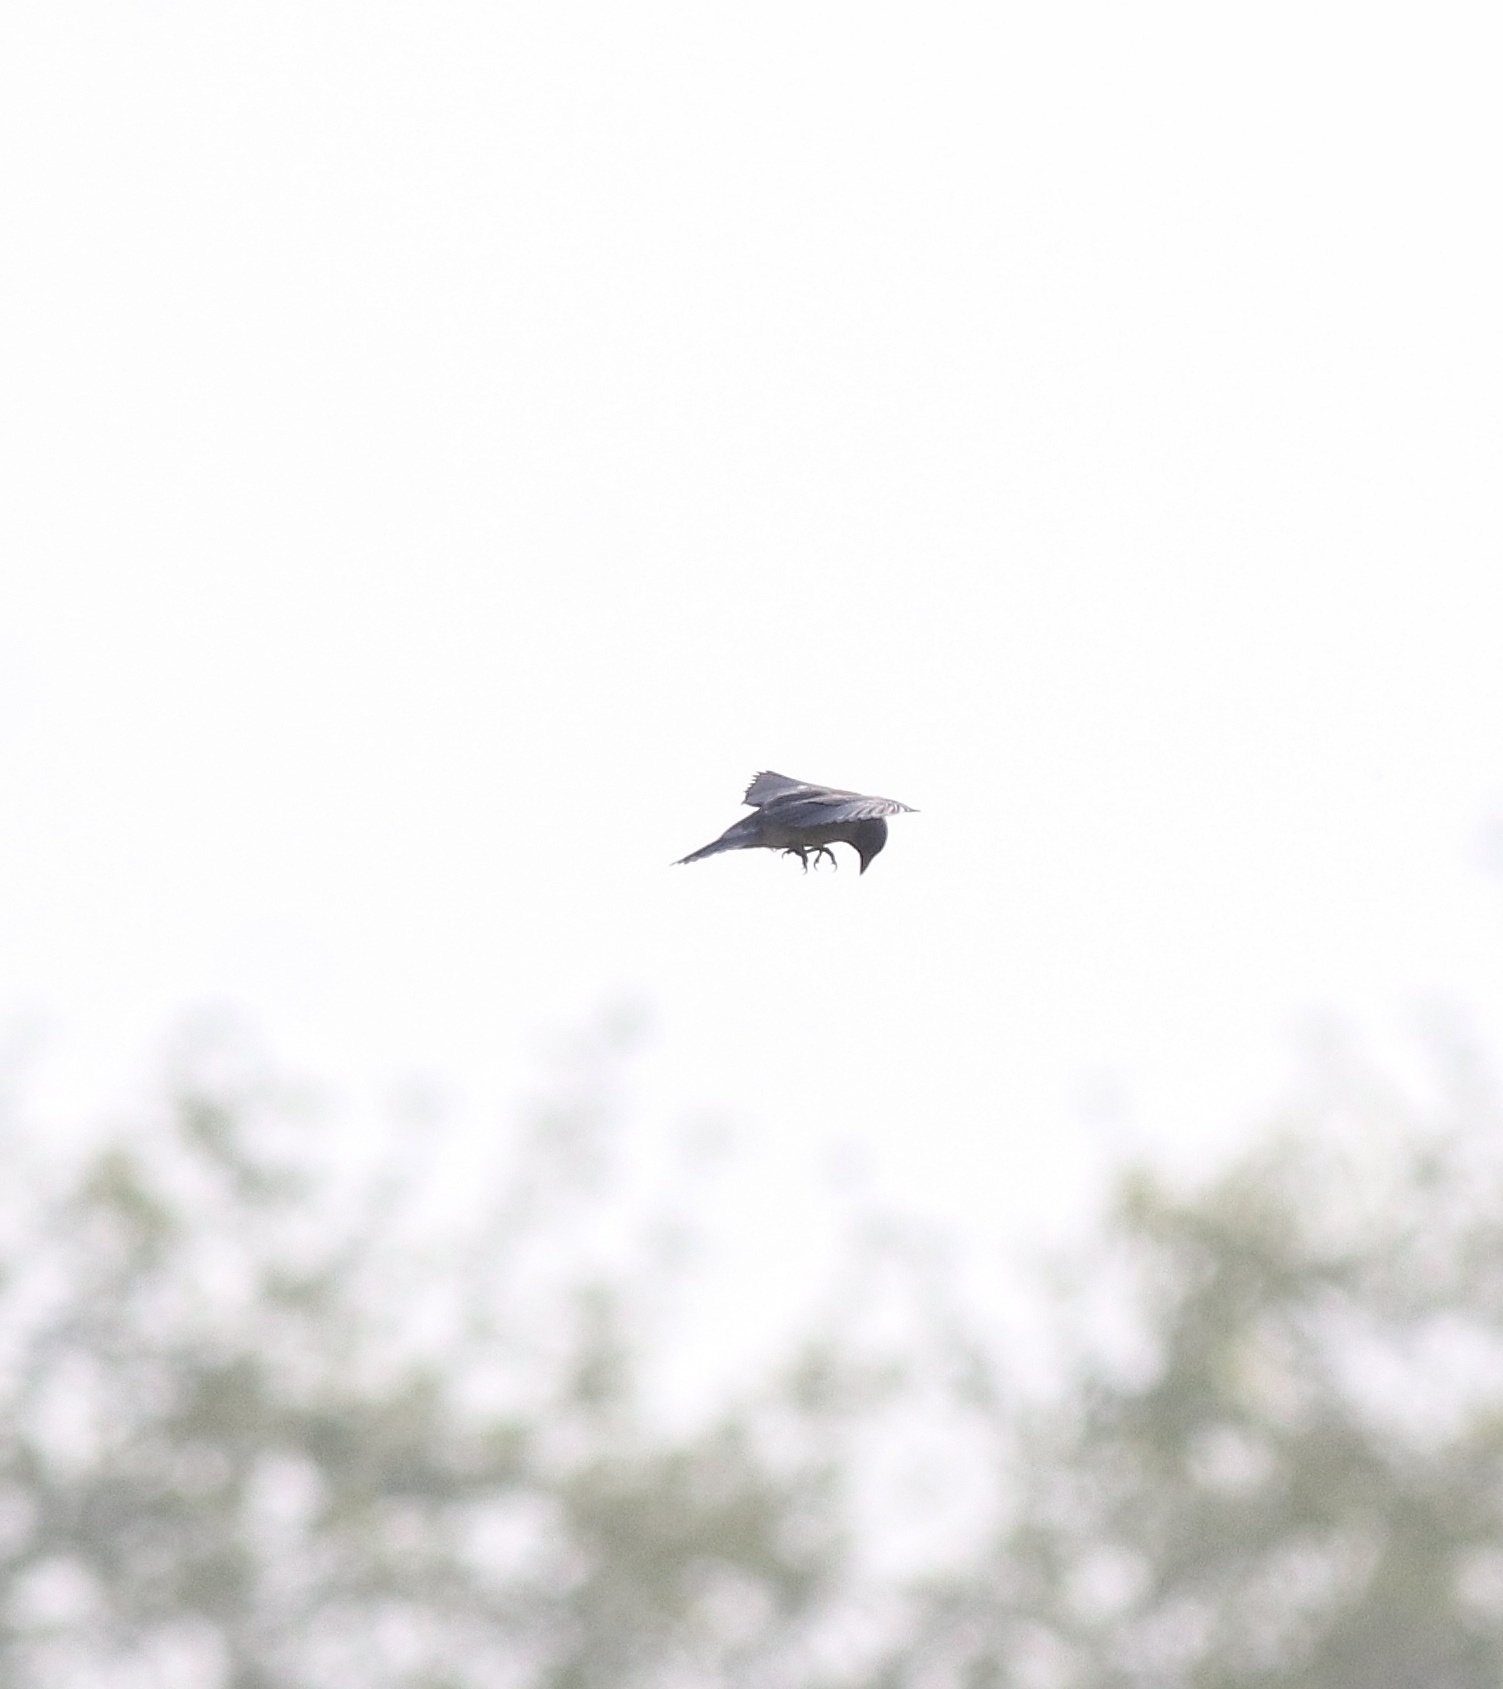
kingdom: Animalia
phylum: Chordata
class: Aves
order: Passeriformes
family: Artamidae
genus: Artamus
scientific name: Artamus fuscus
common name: Ashy woodswallow
